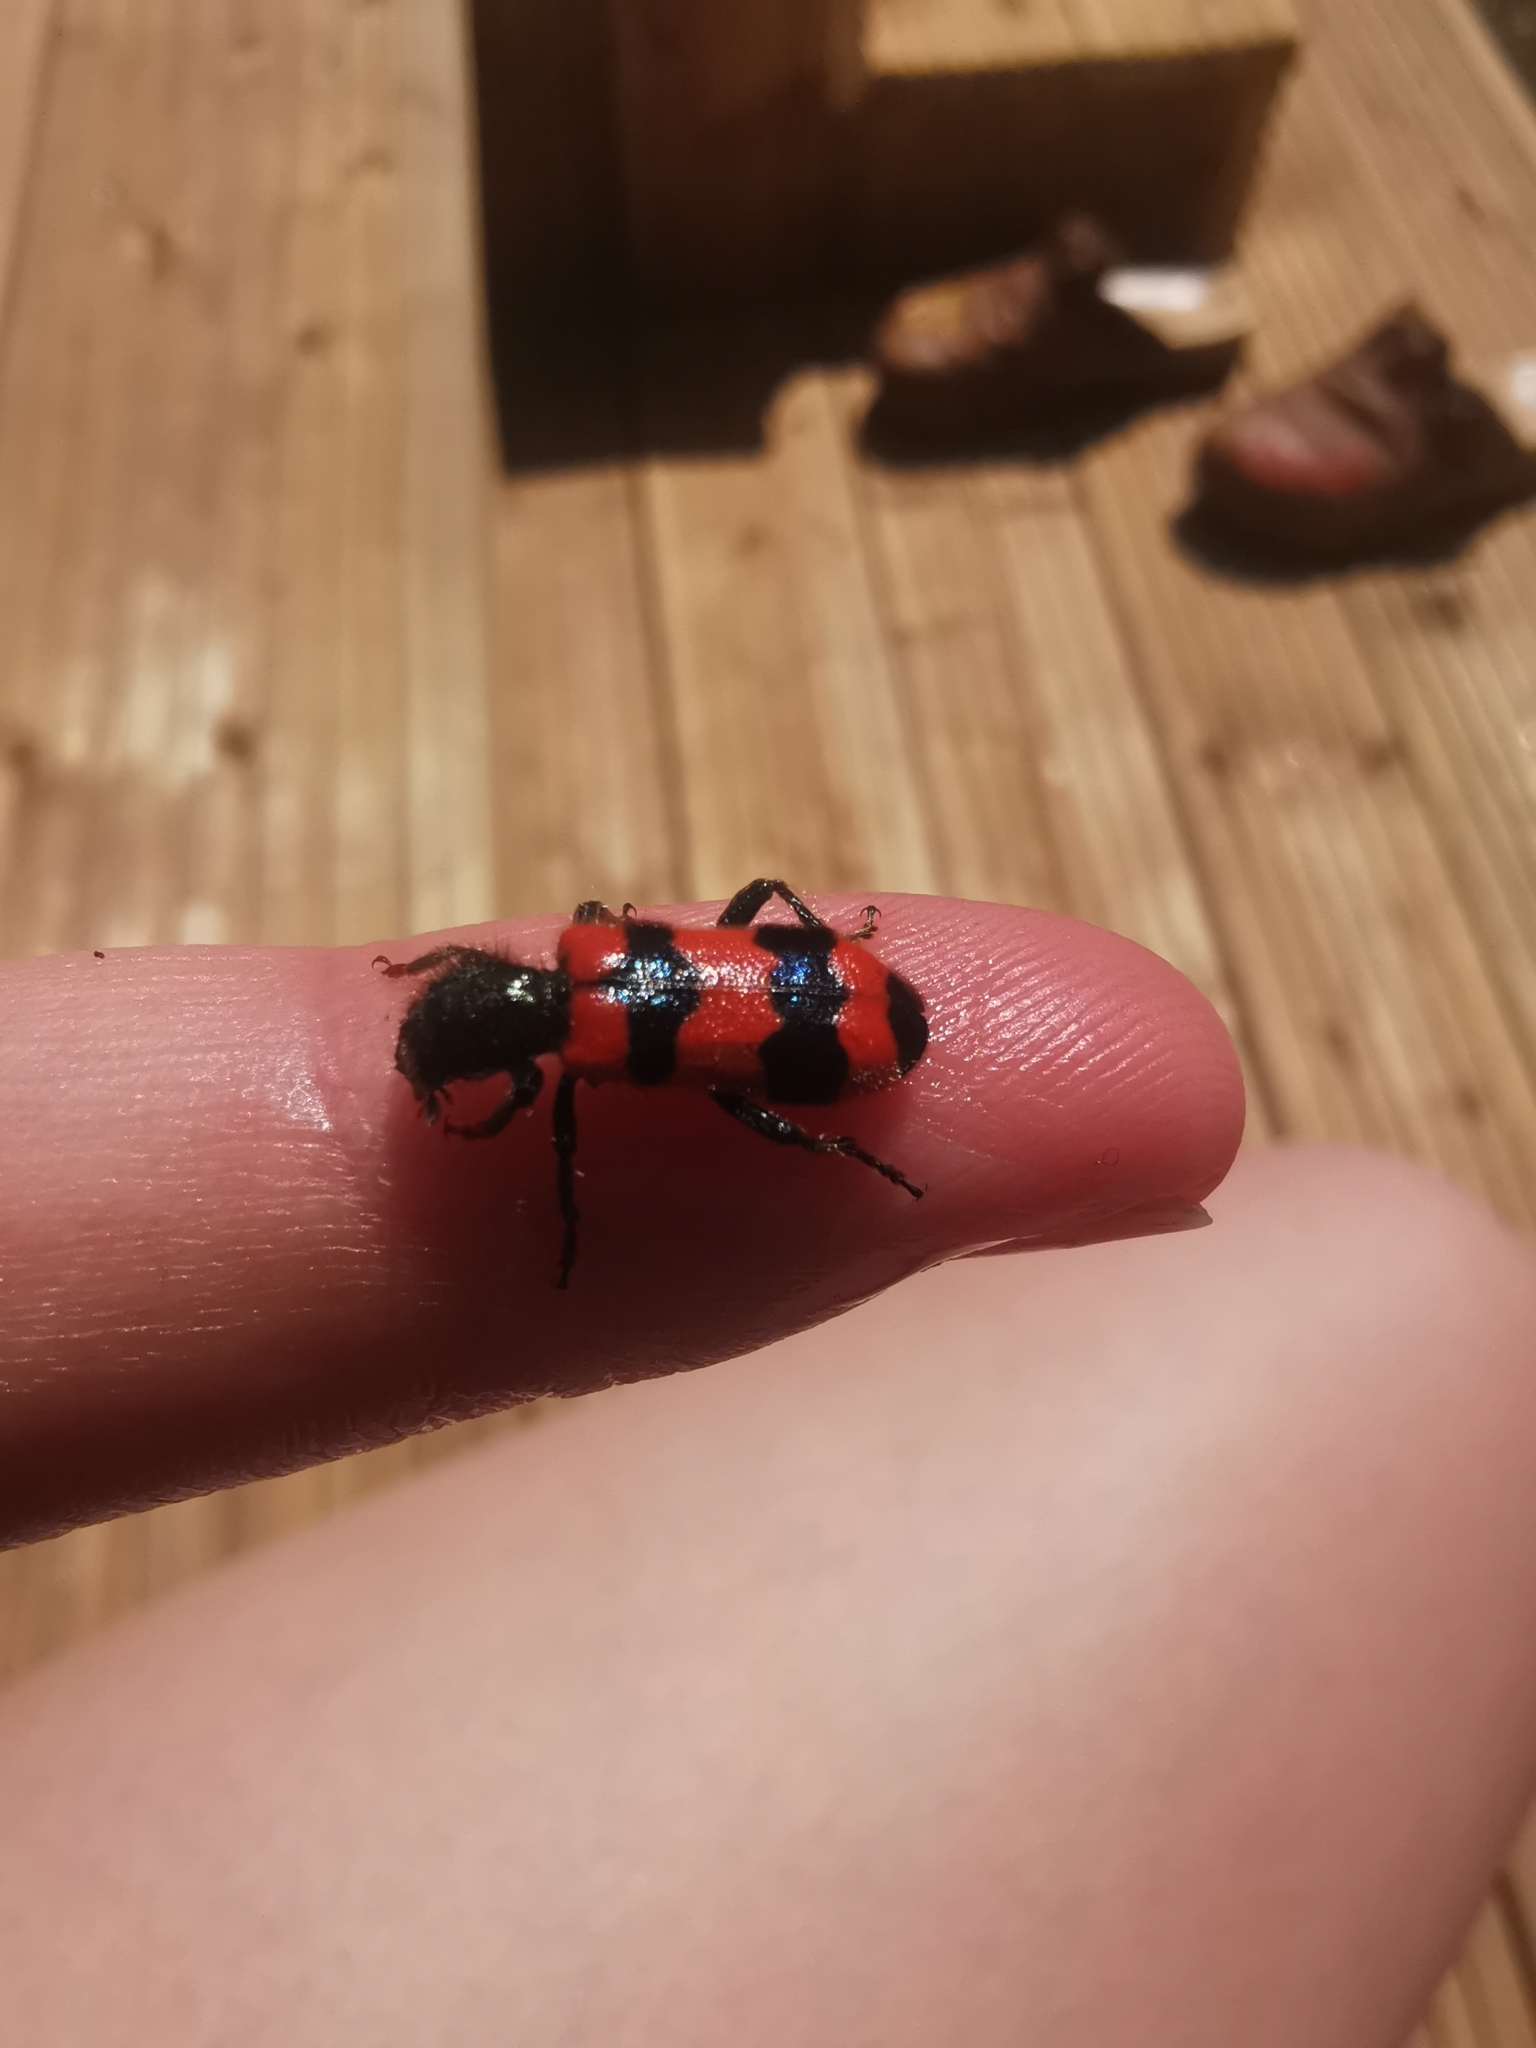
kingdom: Animalia
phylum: Arthropoda
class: Insecta
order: Coleoptera
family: Cleridae
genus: Trichodes
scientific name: Trichodes apiarius
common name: Bee-eating beetle
